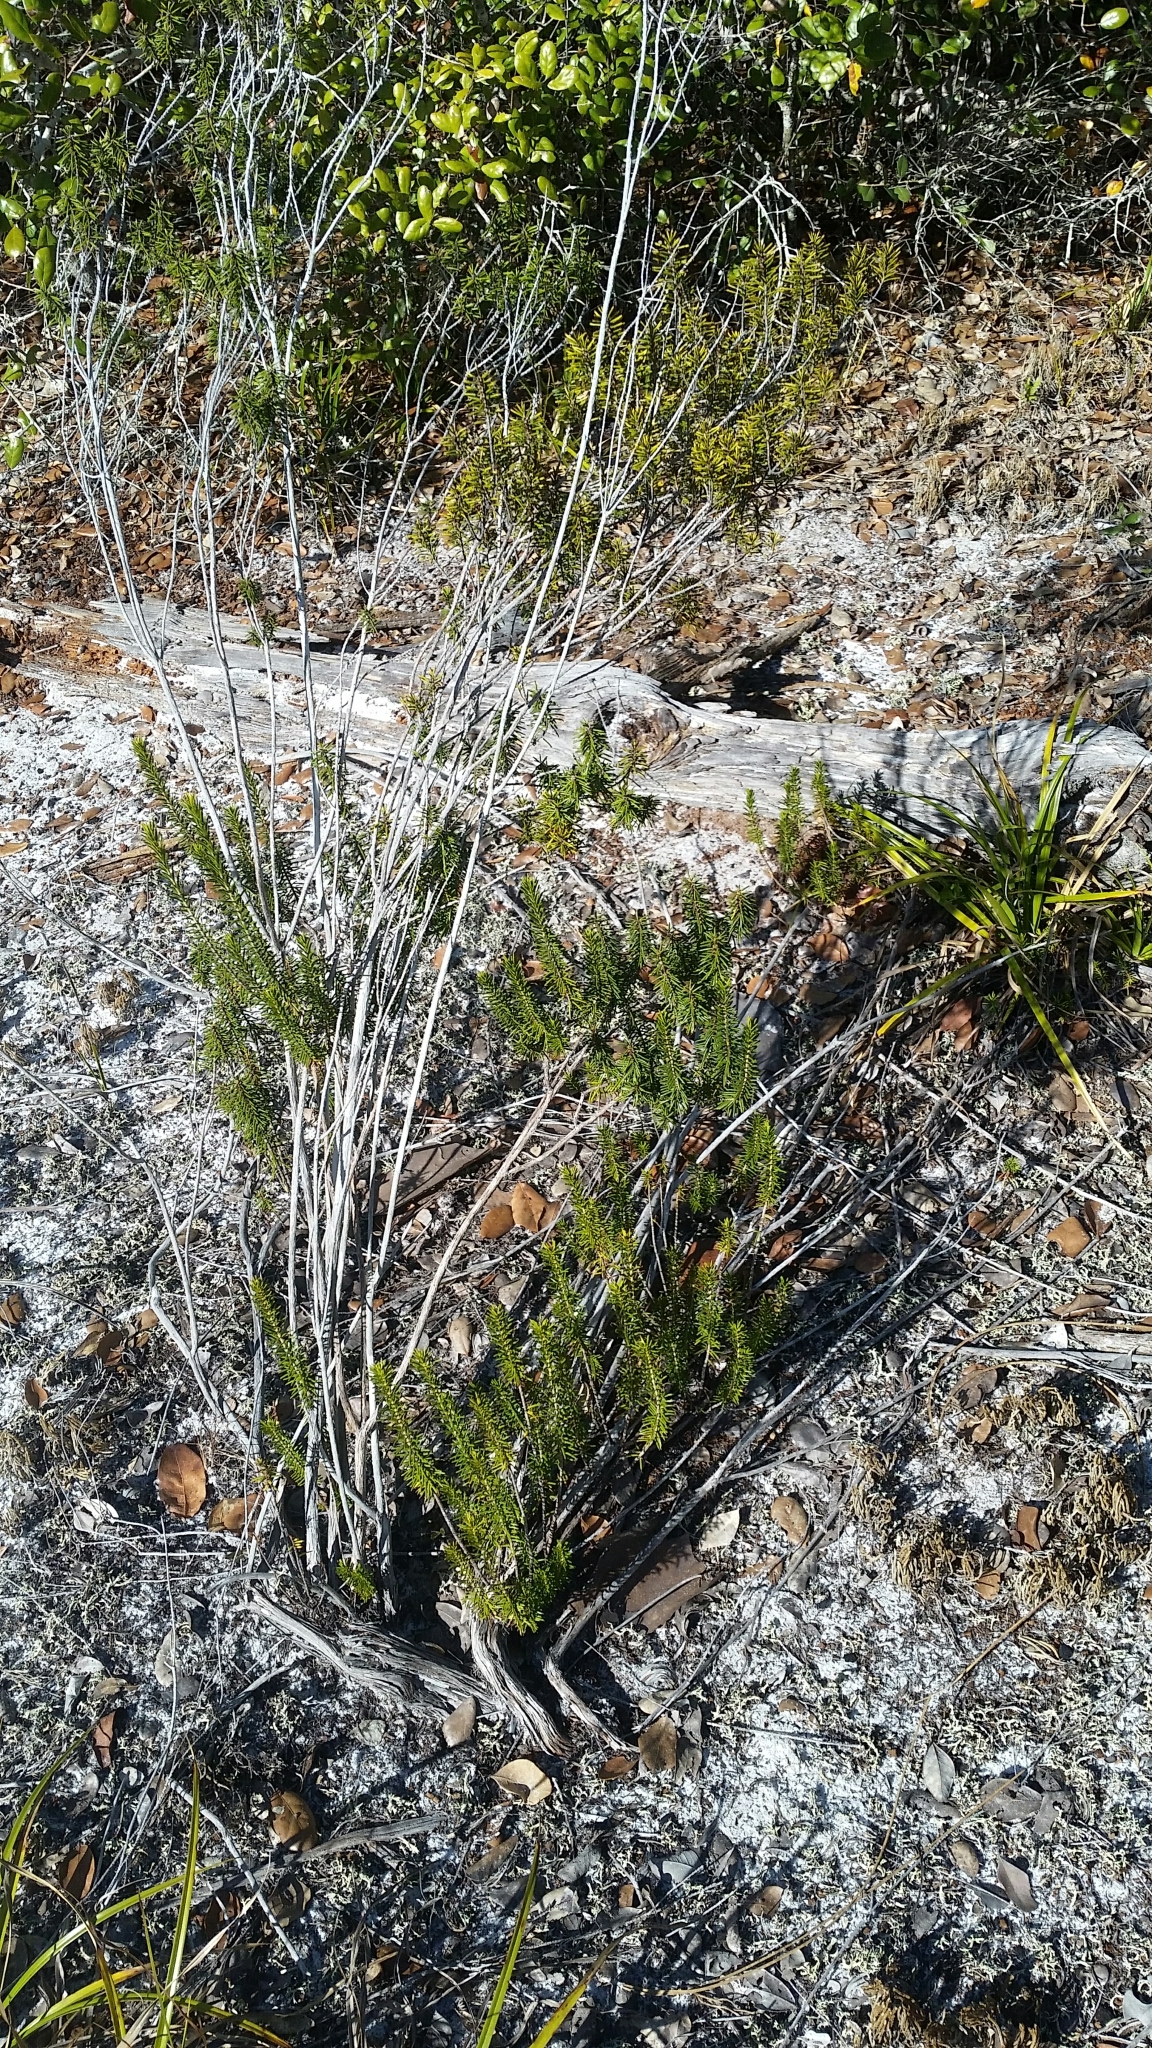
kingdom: Plantae
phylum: Tracheophyta
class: Magnoliopsida
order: Ericales
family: Ericaceae
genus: Ceratiola
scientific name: Ceratiola ericoides
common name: Sandhill-rosemary
